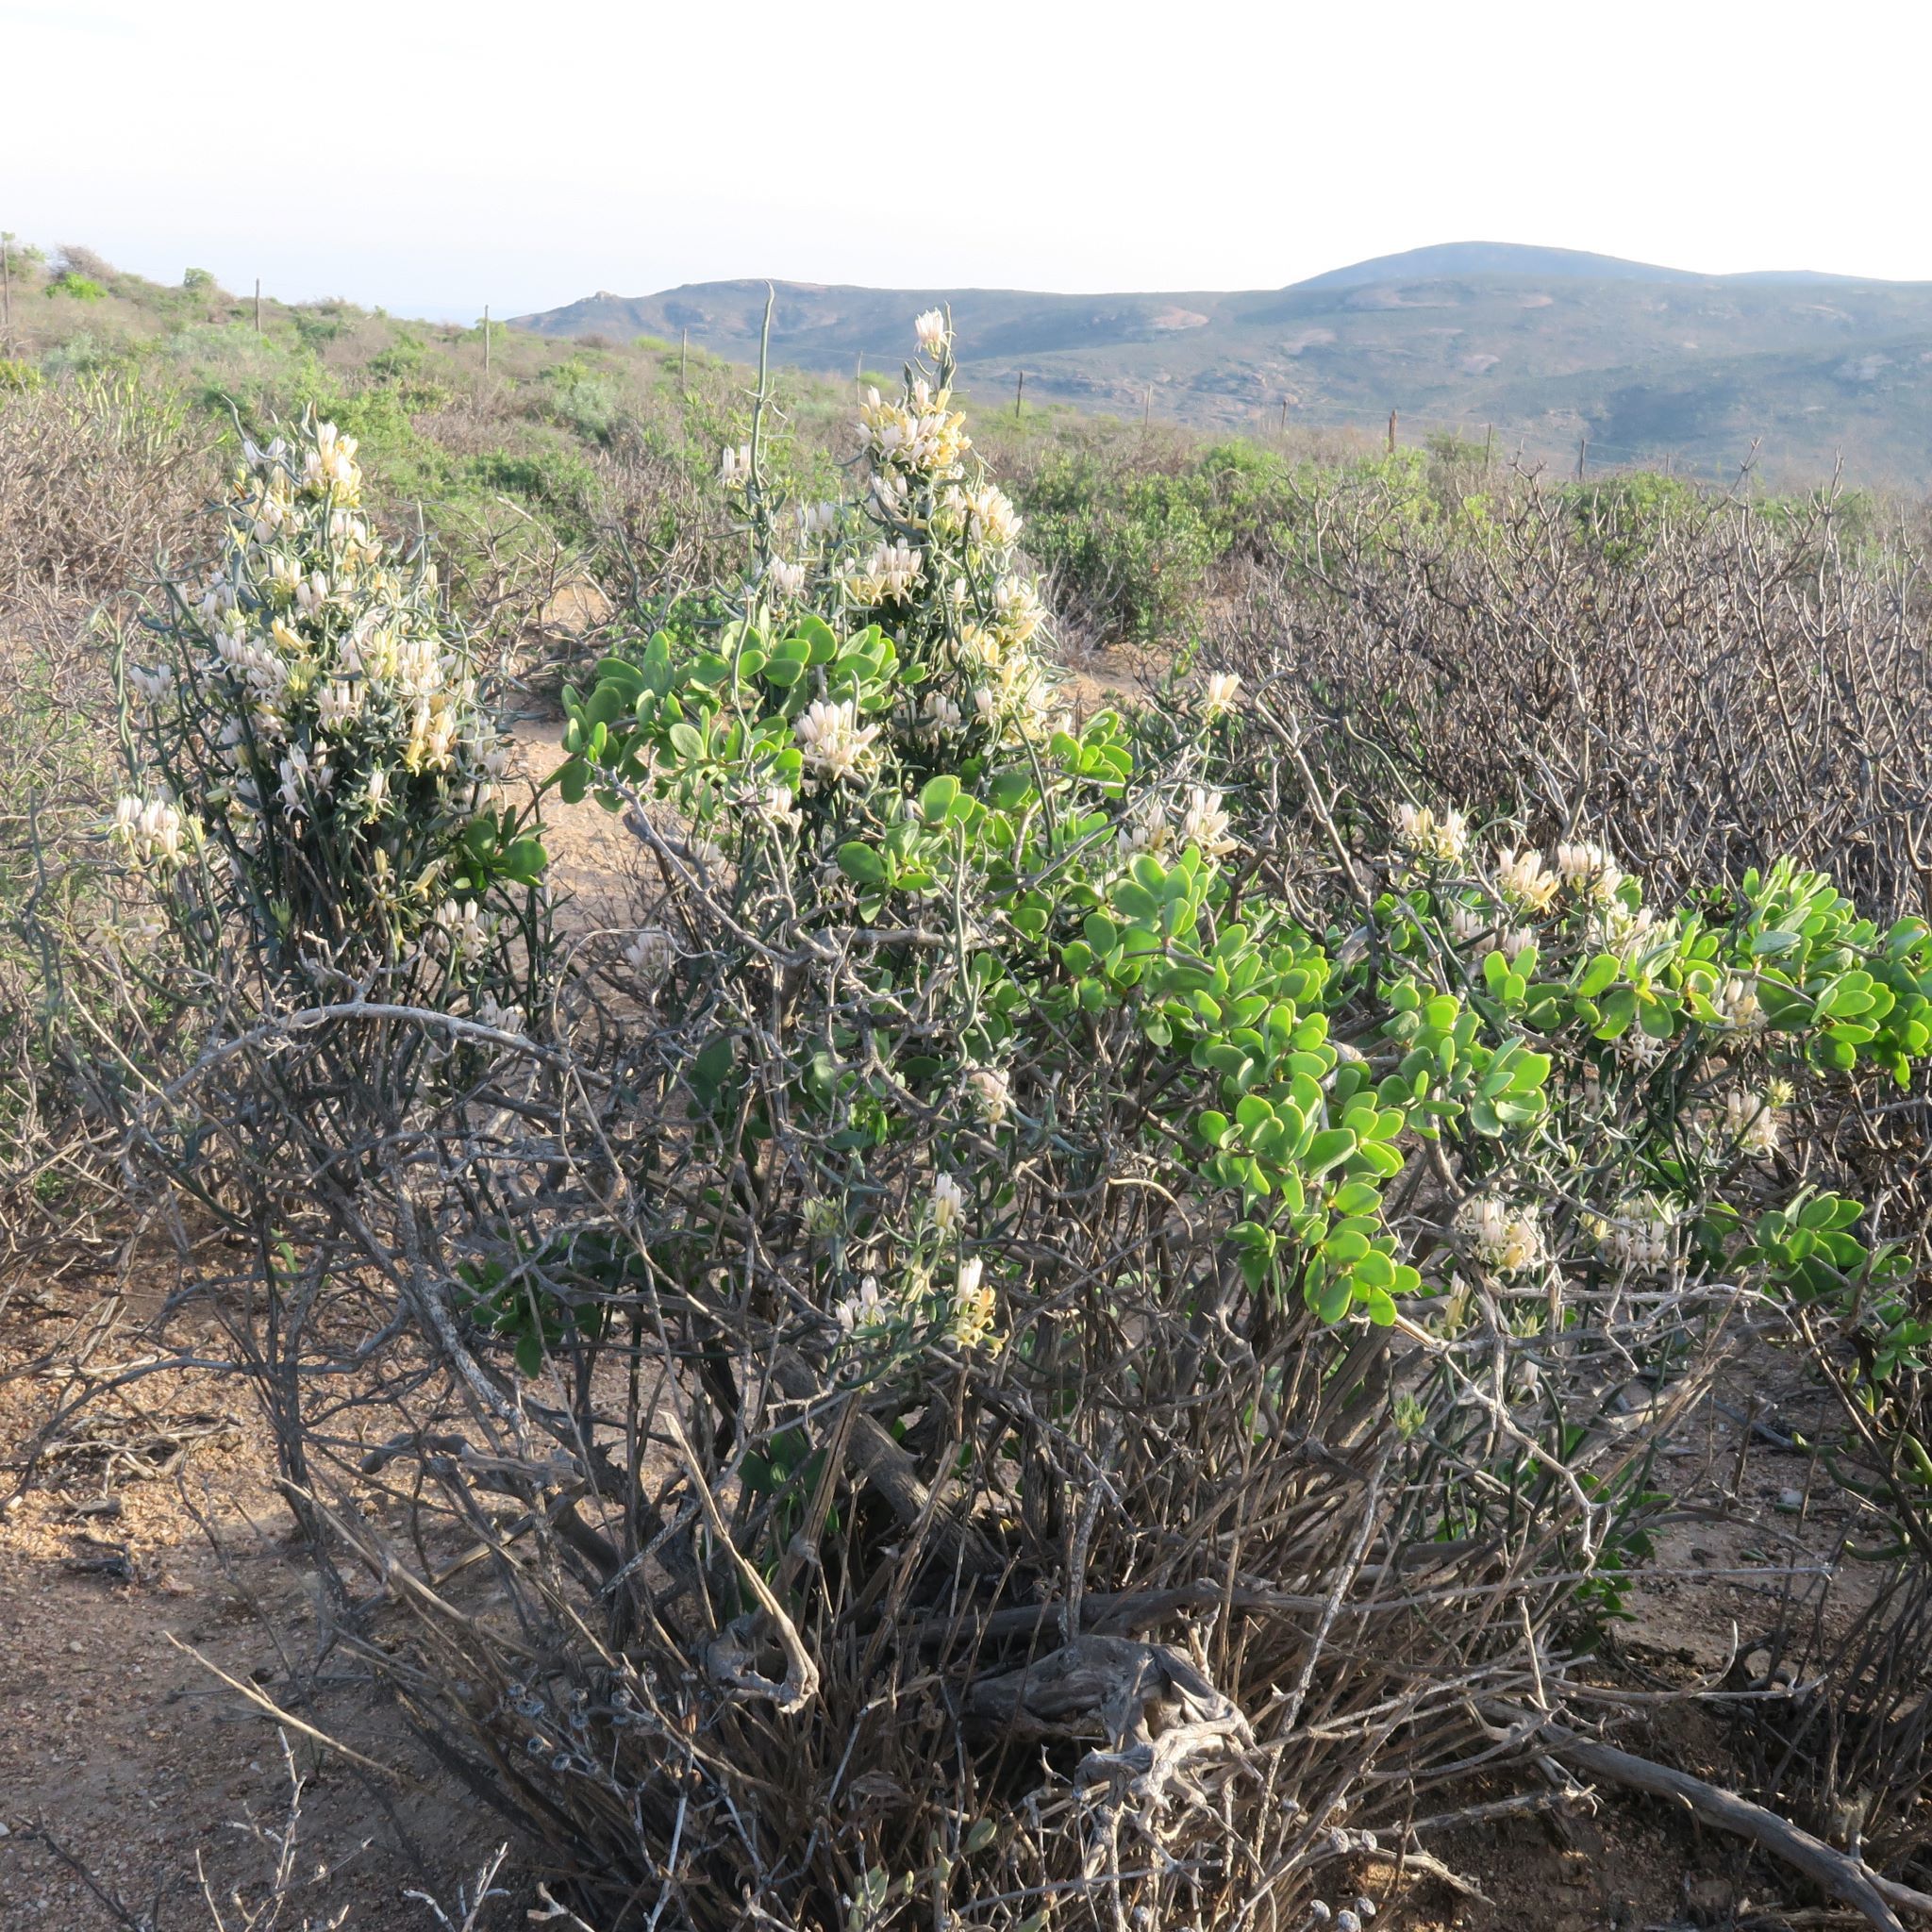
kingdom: Plantae
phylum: Tracheophyta
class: Magnoliopsida
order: Gentianales
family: Apocynaceae
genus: Microloma
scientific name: Microloma sagittatum
